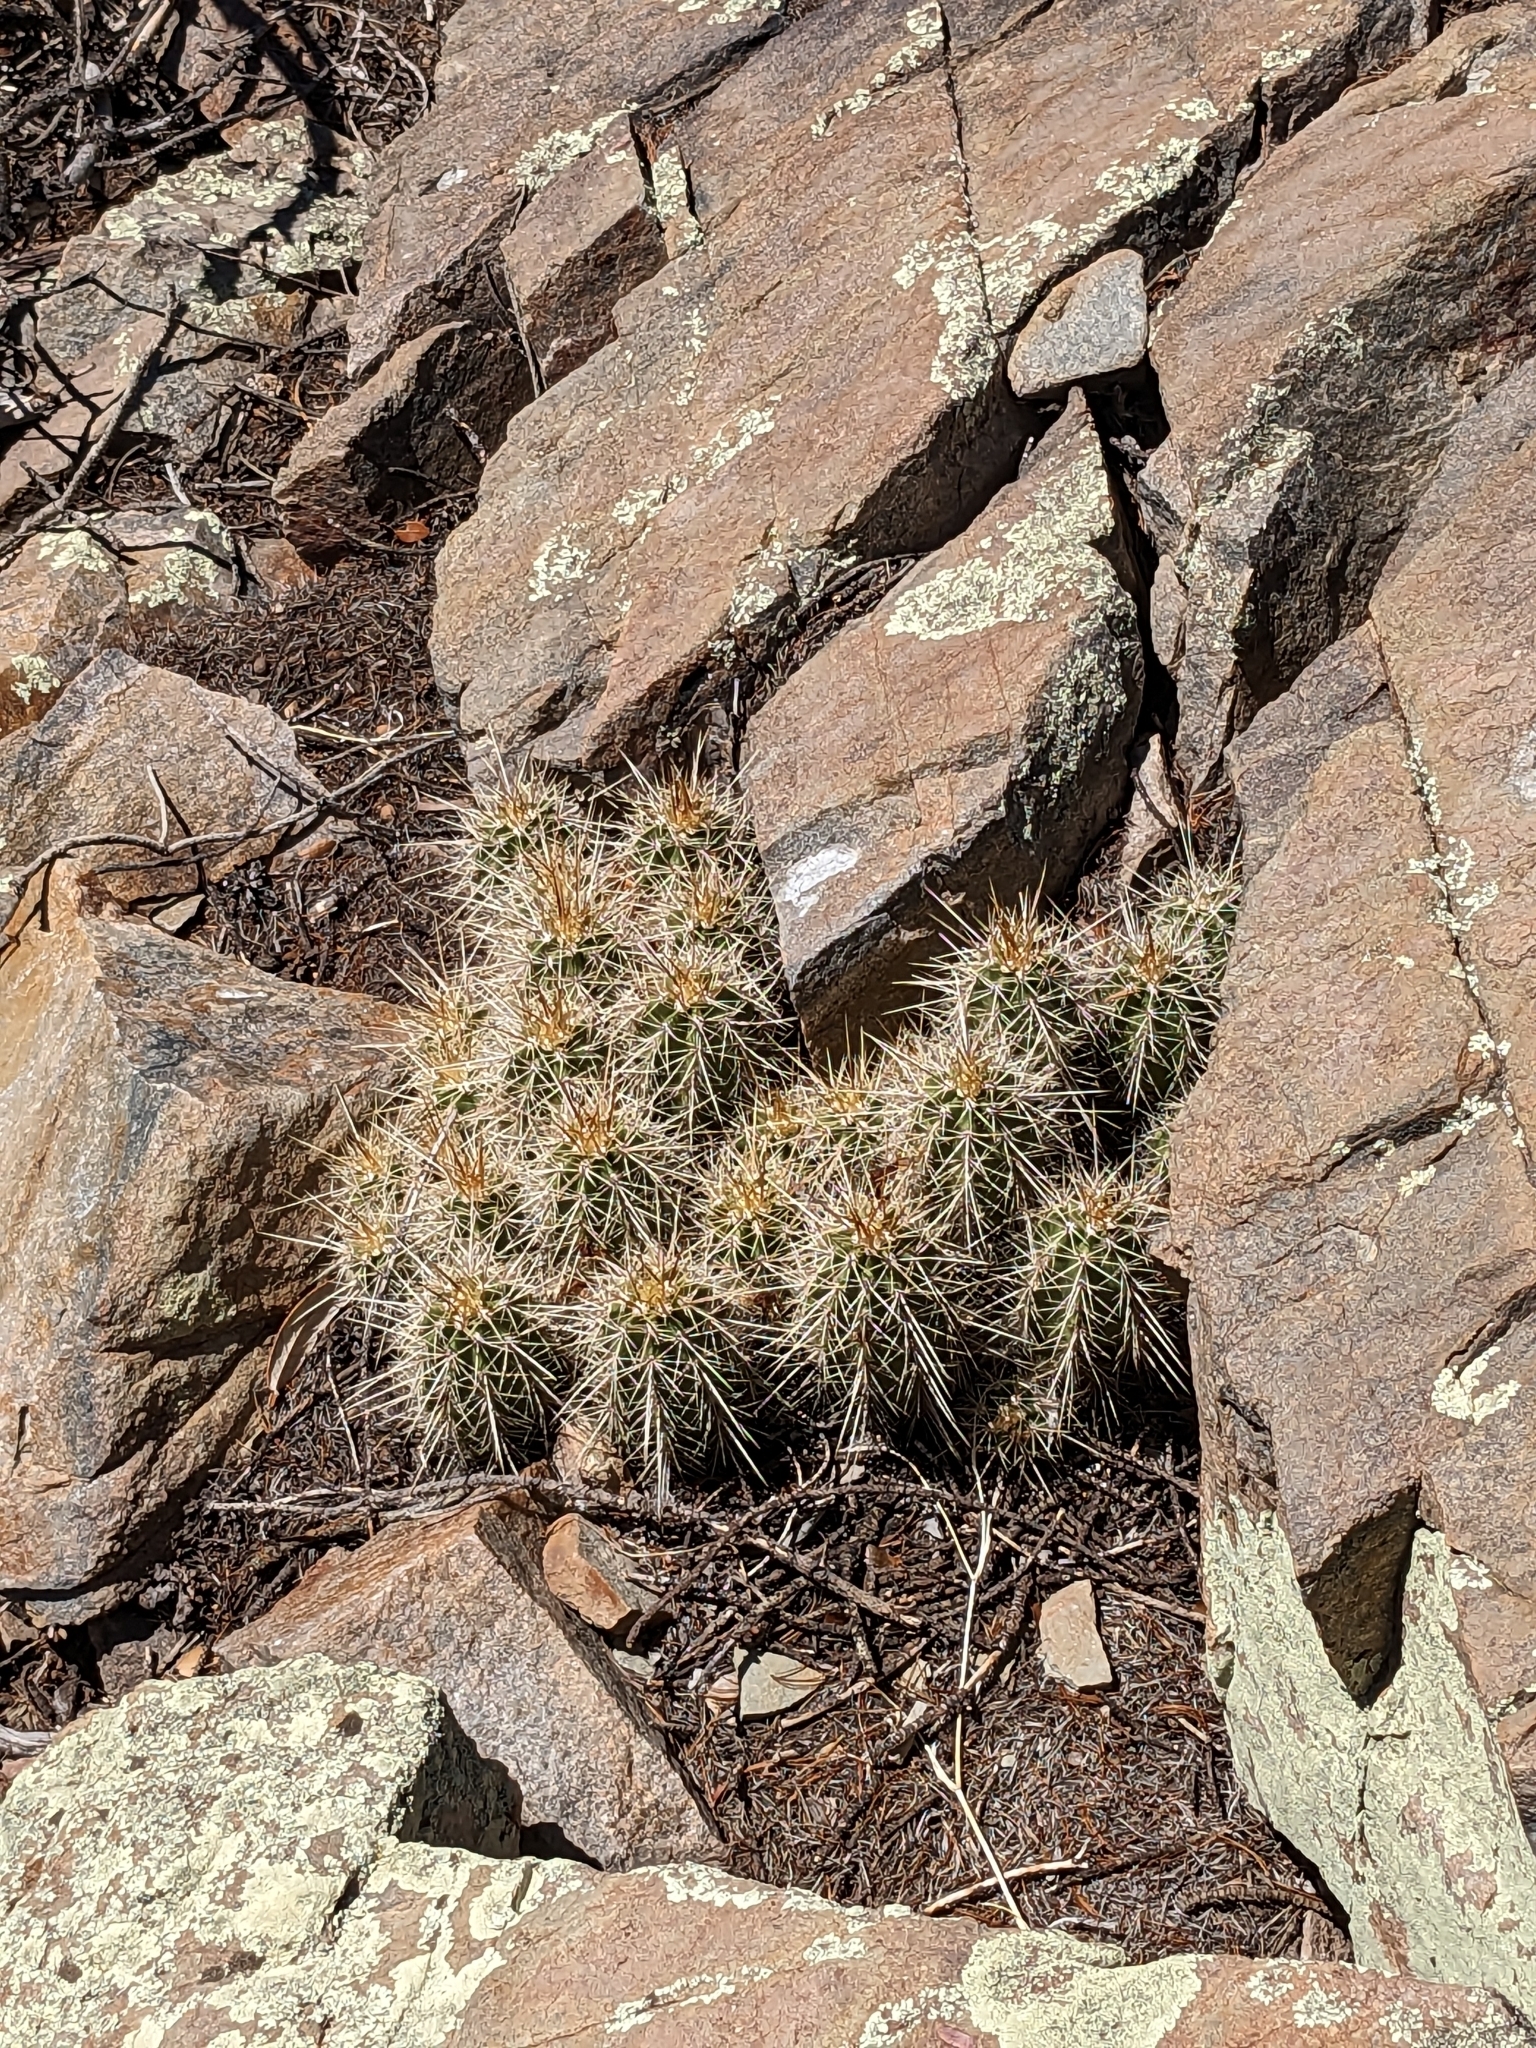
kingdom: Plantae
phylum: Tracheophyta
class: Magnoliopsida
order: Caryophyllales
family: Cactaceae
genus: Echinocereus
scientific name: Echinocereus coccineus
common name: Scarlet hedgehog cactus
